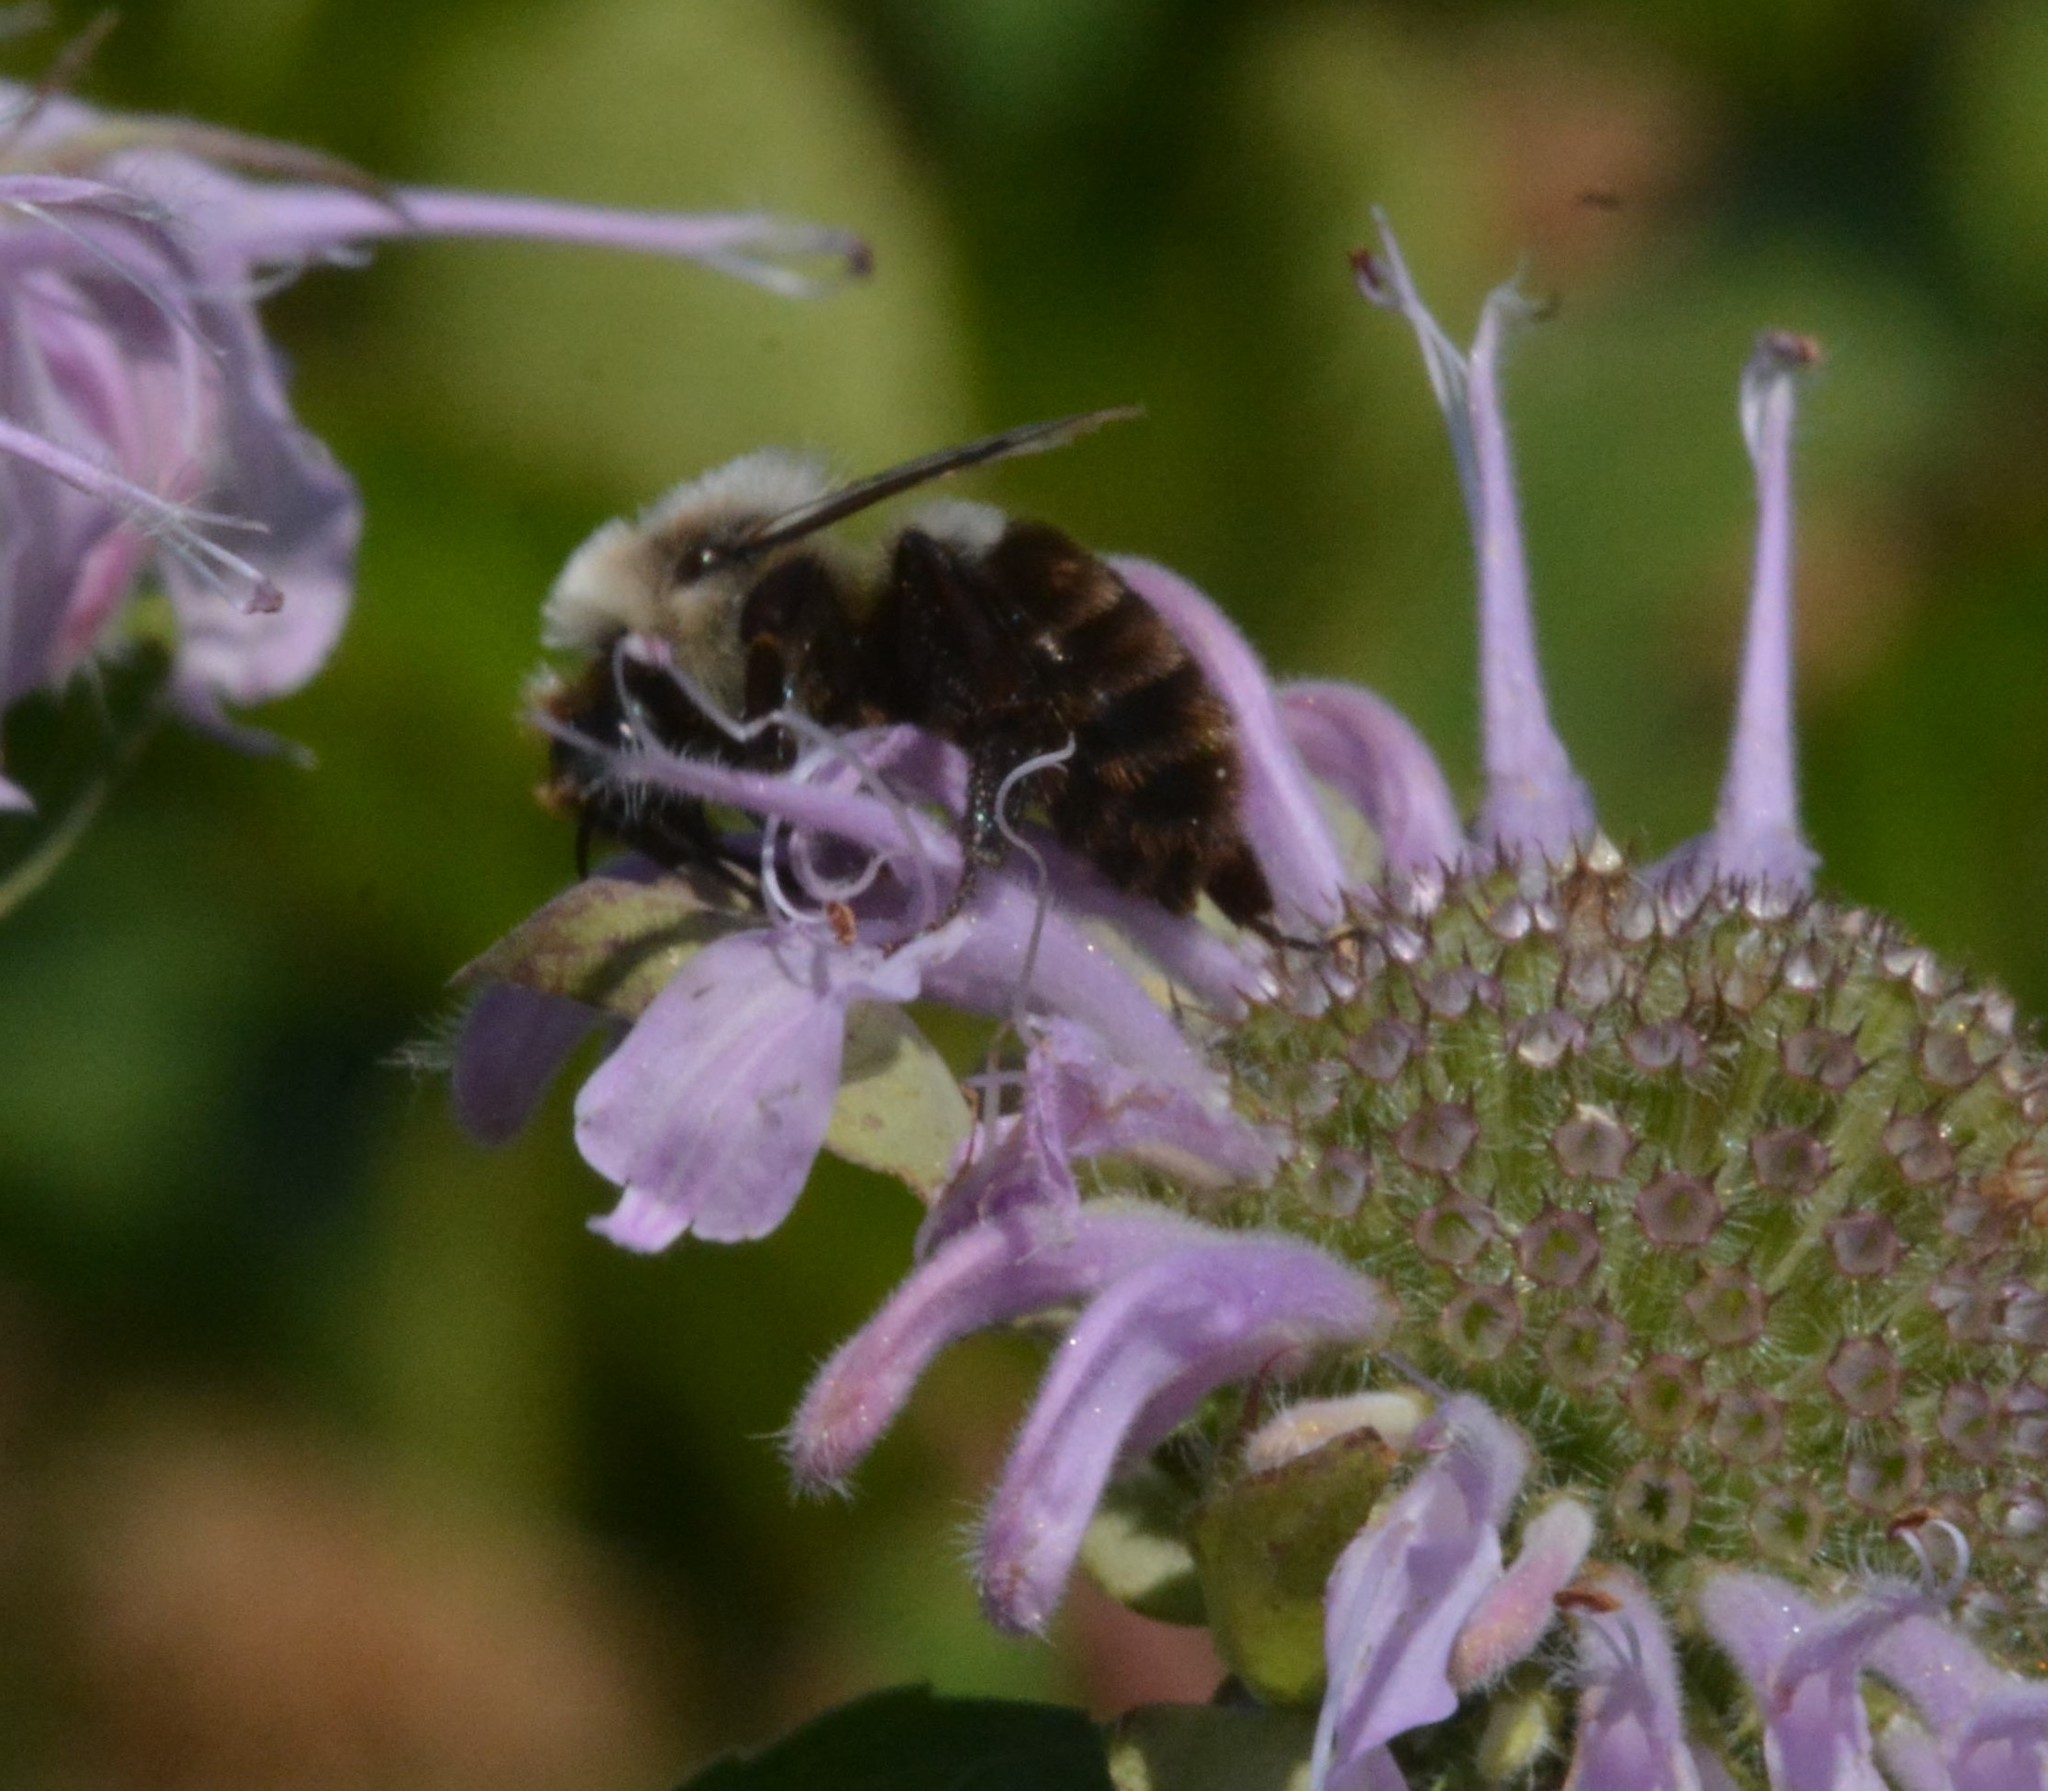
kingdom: Animalia
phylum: Arthropoda
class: Insecta
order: Hymenoptera
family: Apidae
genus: Bombus
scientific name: Bombus impatiens
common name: Common eastern bumble bee
